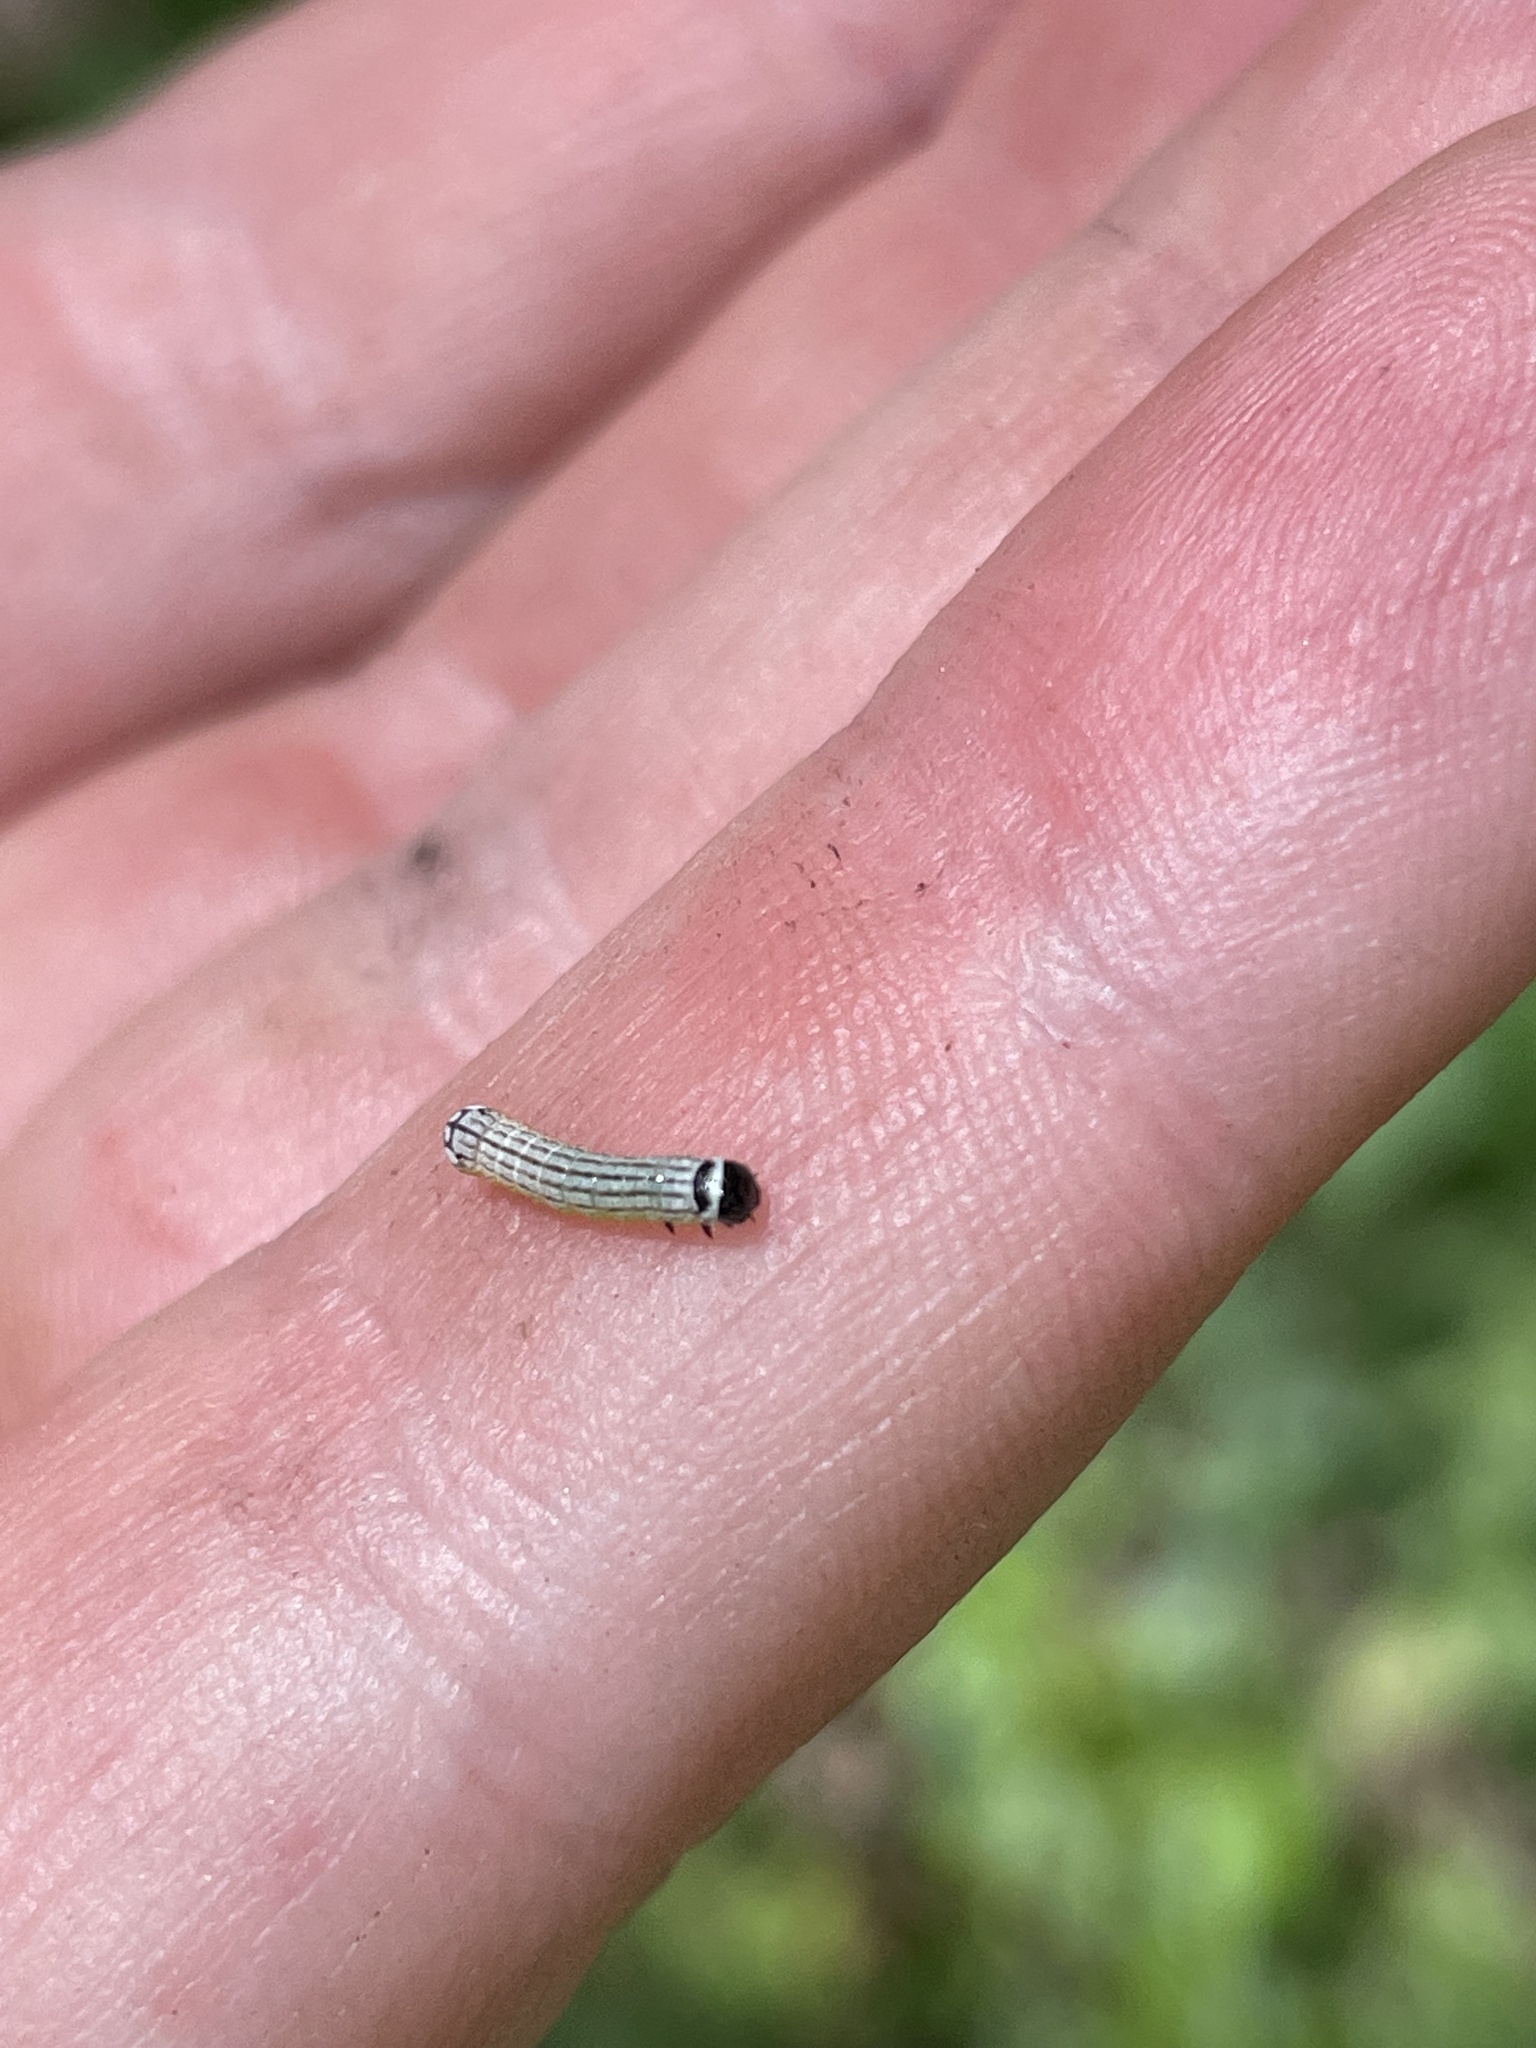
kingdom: Animalia
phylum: Arthropoda
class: Insecta
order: Lepidoptera
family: Noctuidae
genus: Phosphila
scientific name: Phosphila turbulenta
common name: Turbulent phosphila moth
